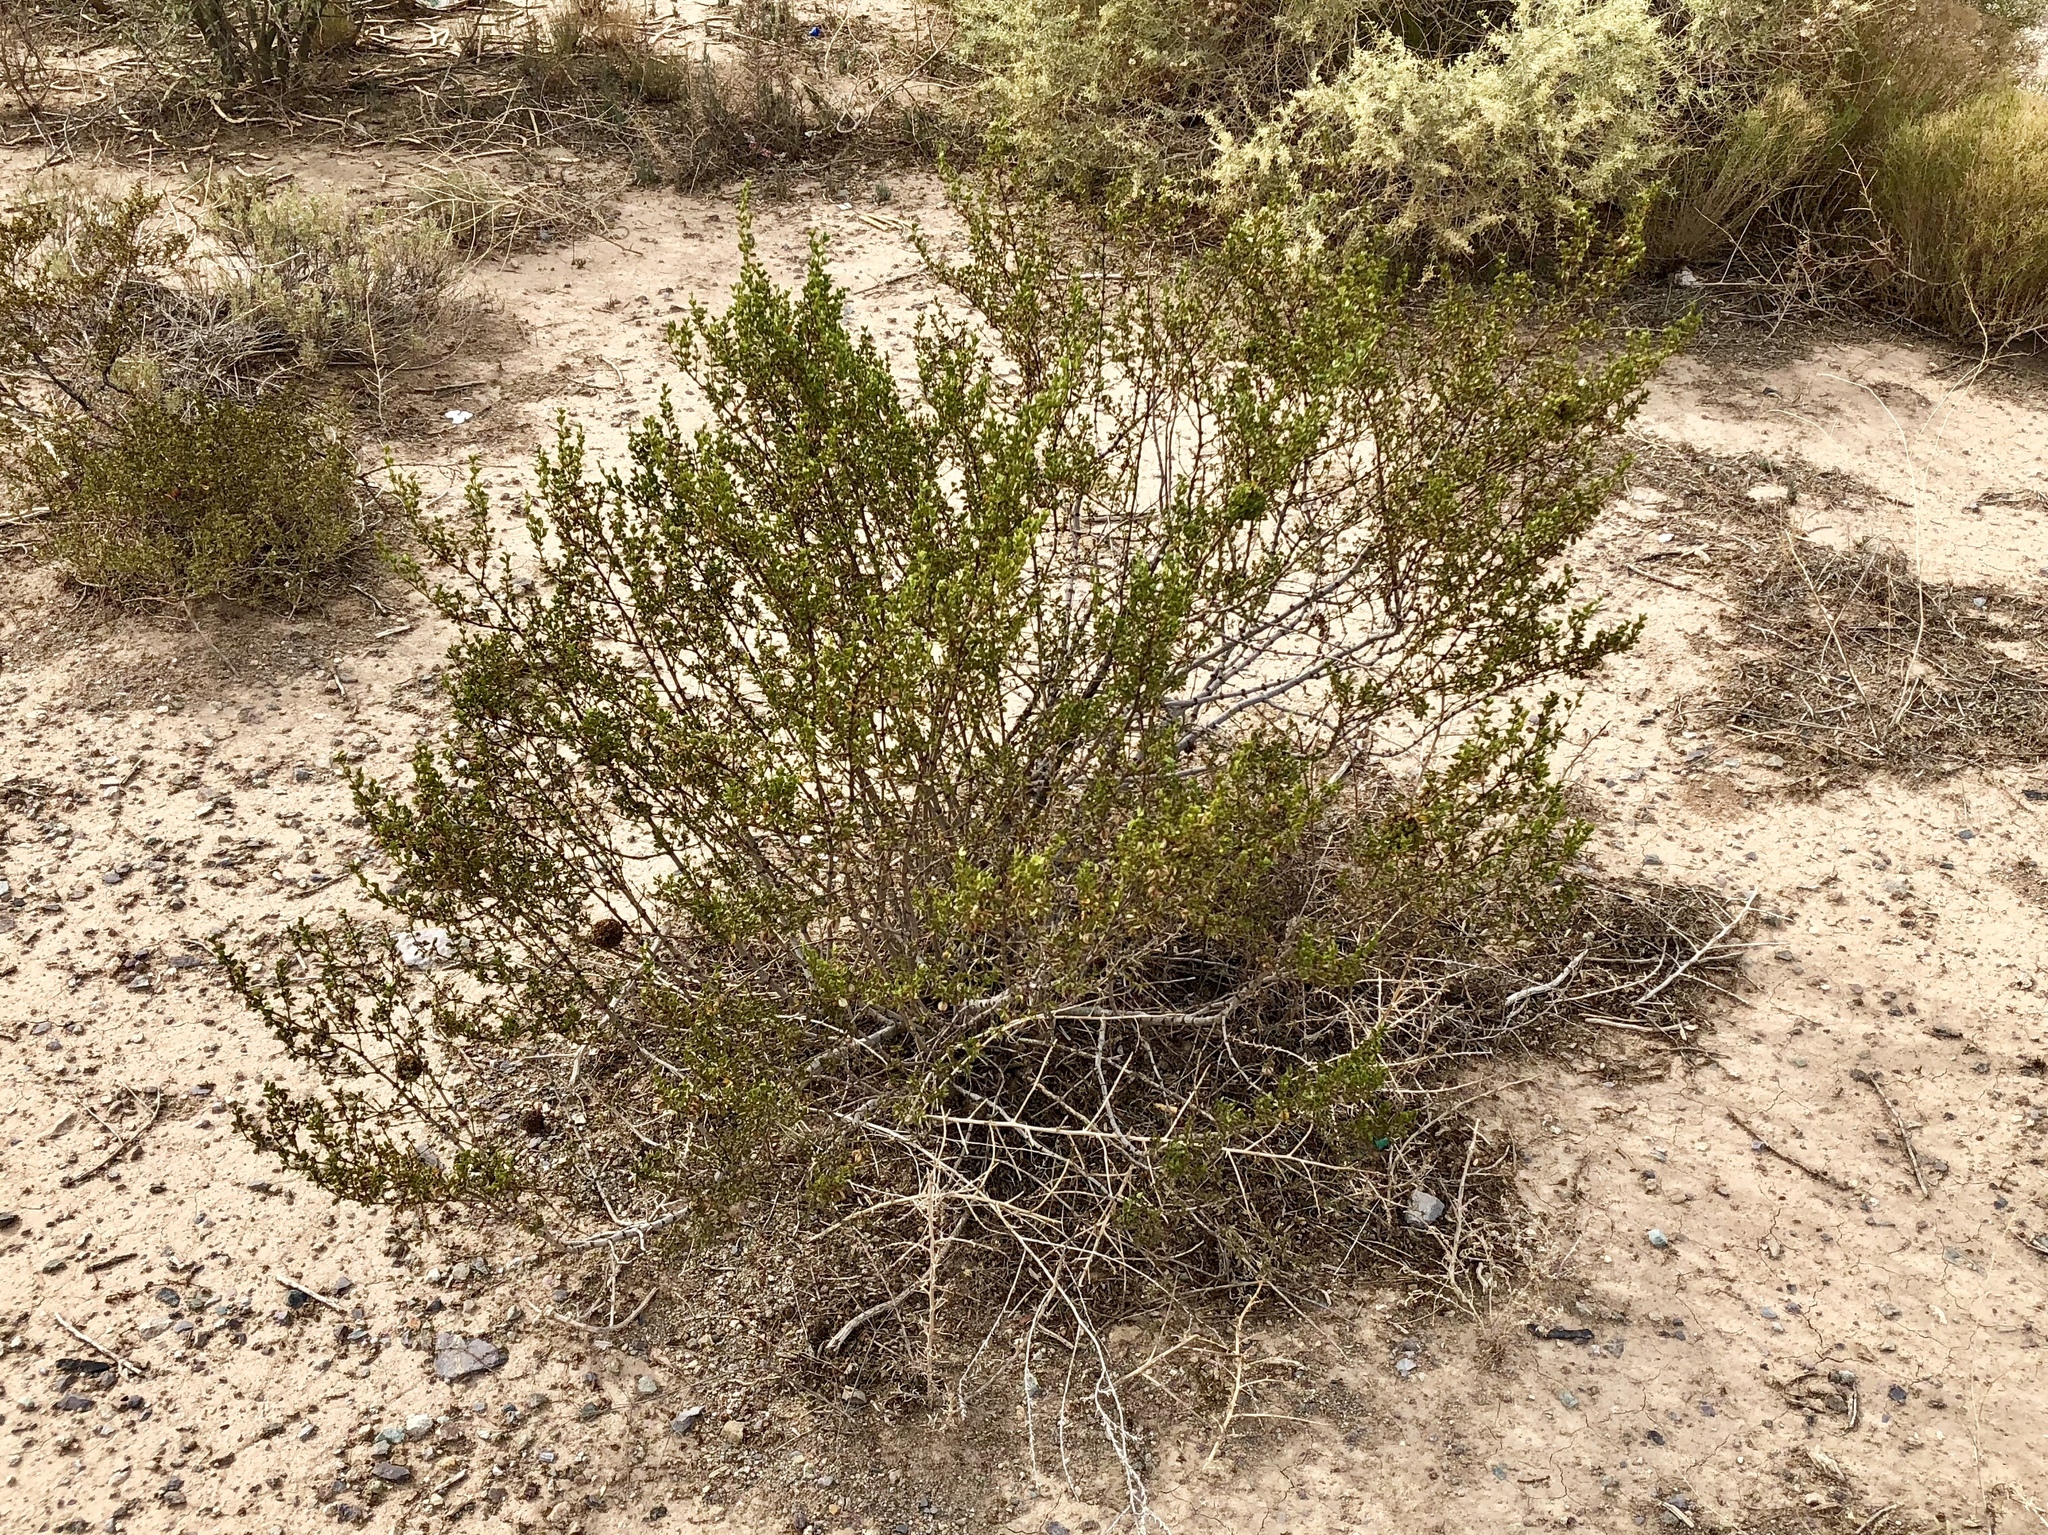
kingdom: Plantae
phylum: Tracheophyta
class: Magnoliopsida
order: Zygophyllales
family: Zygophyllaceae
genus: Larrea
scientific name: Larrea tridentata
